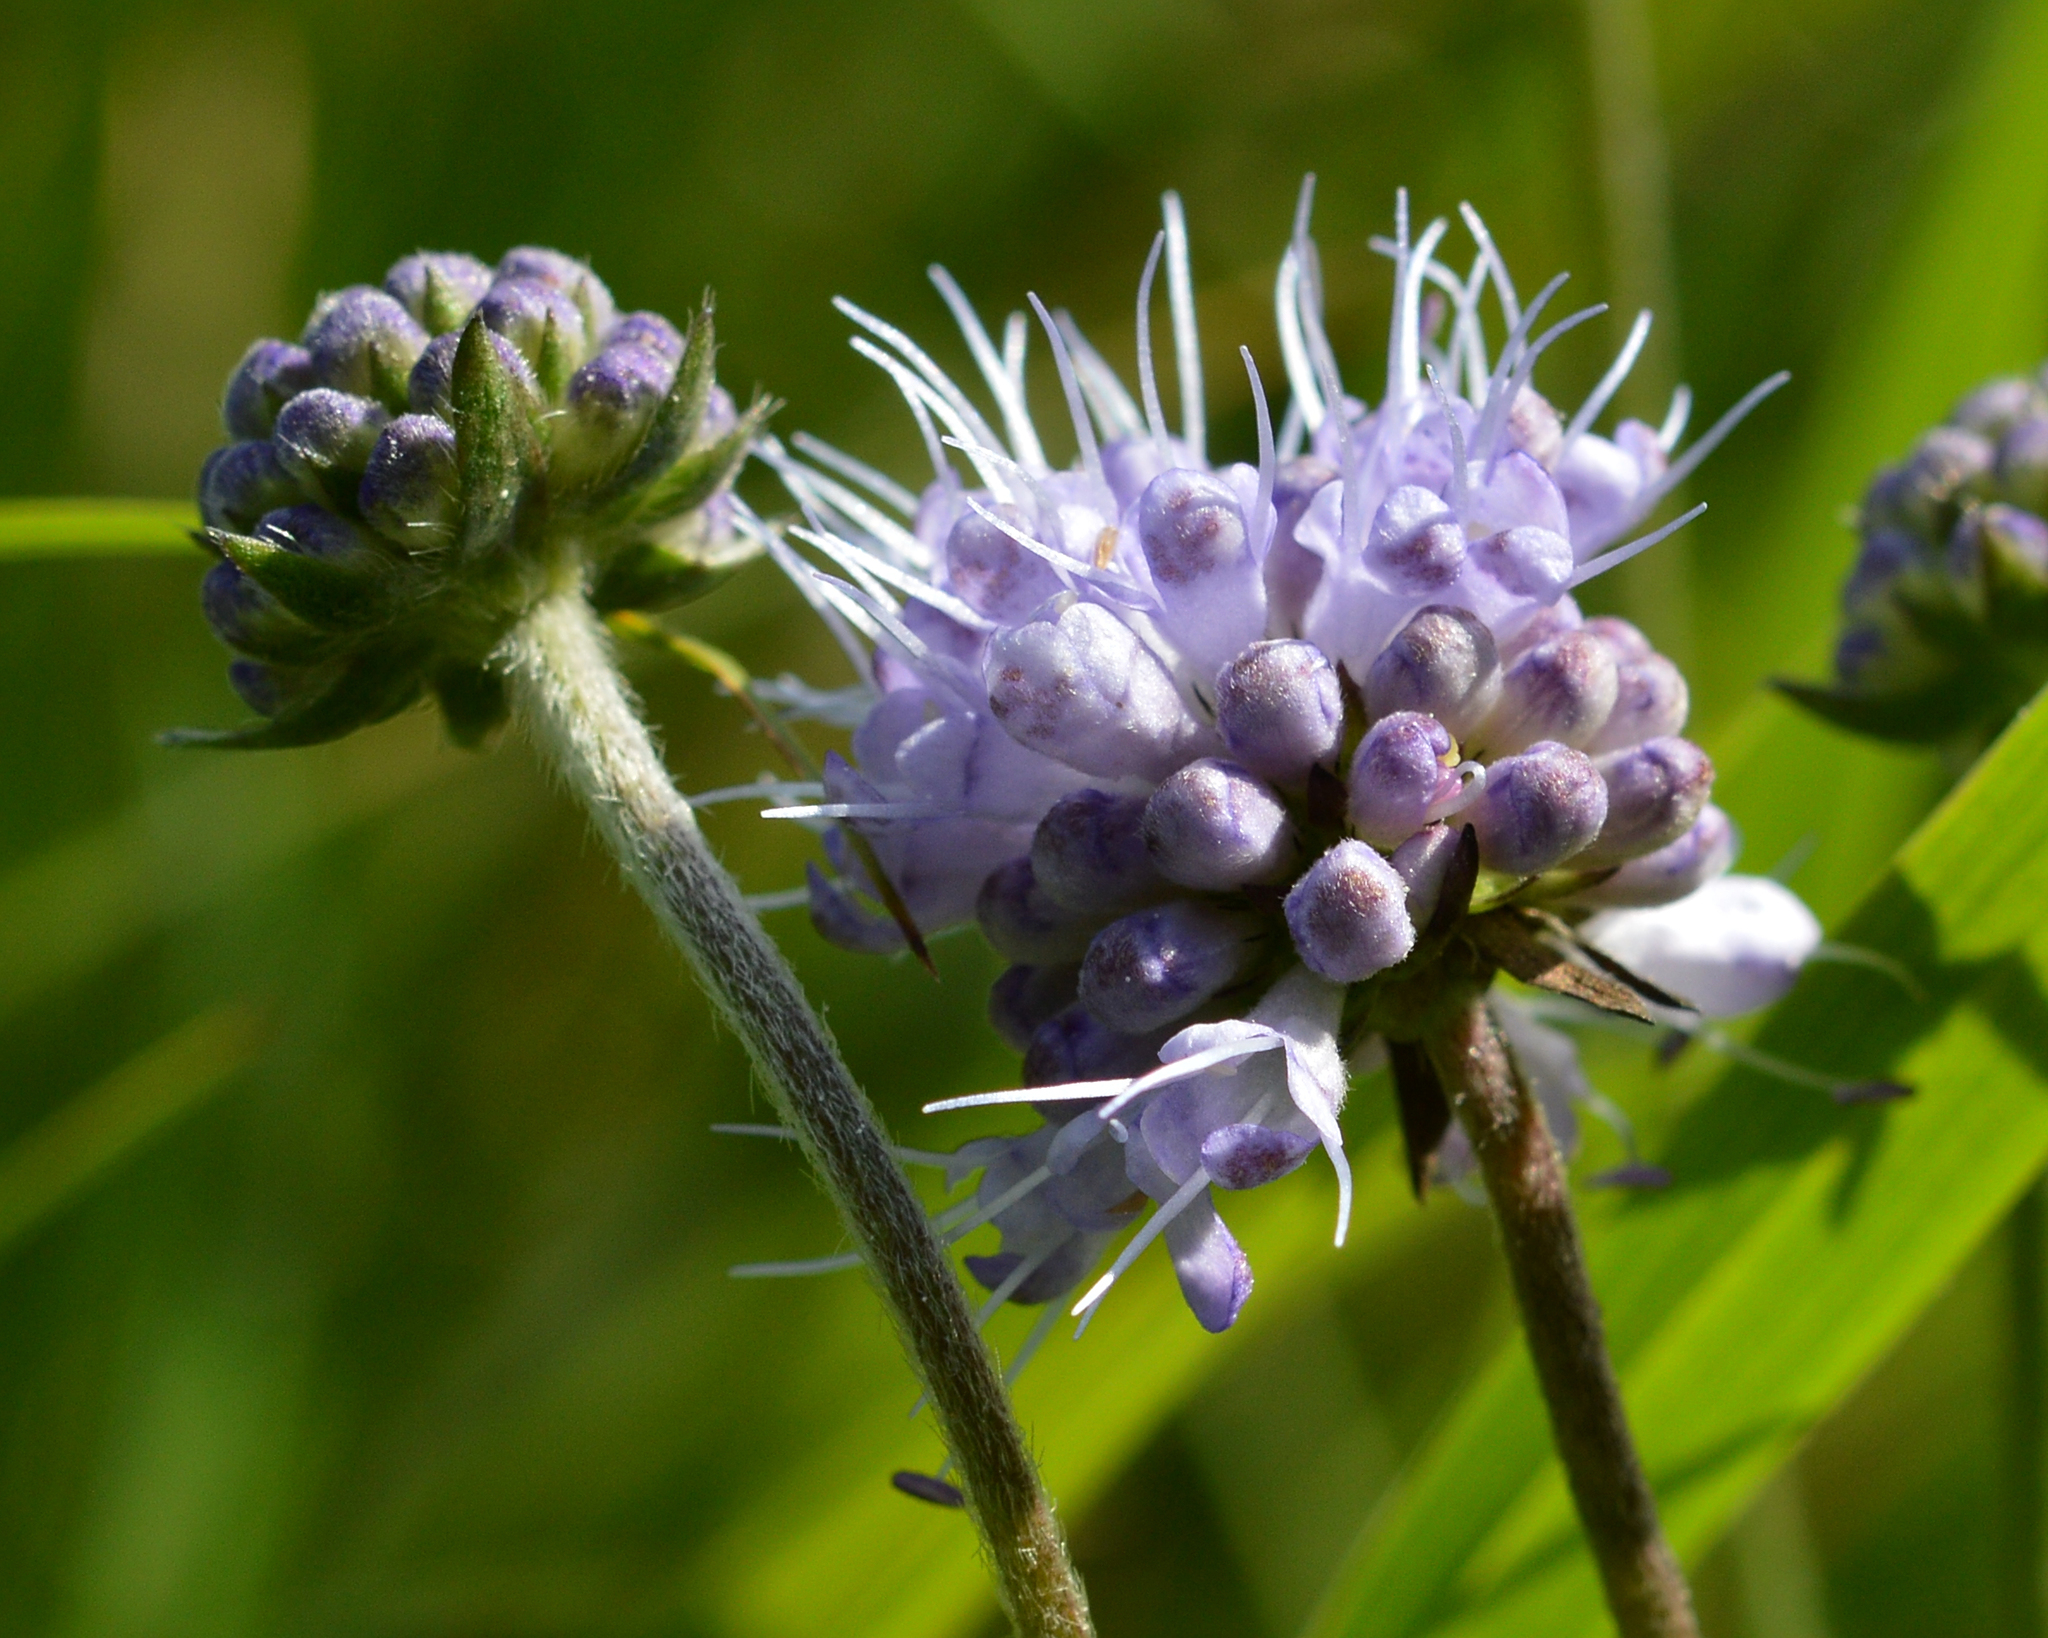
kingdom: Plantae
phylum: Tracheophyta
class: Magnoliopsida
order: Dipsacales
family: Caprifoliaceae
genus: Succisa
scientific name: Succisa pratensis
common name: Devil's-bit
